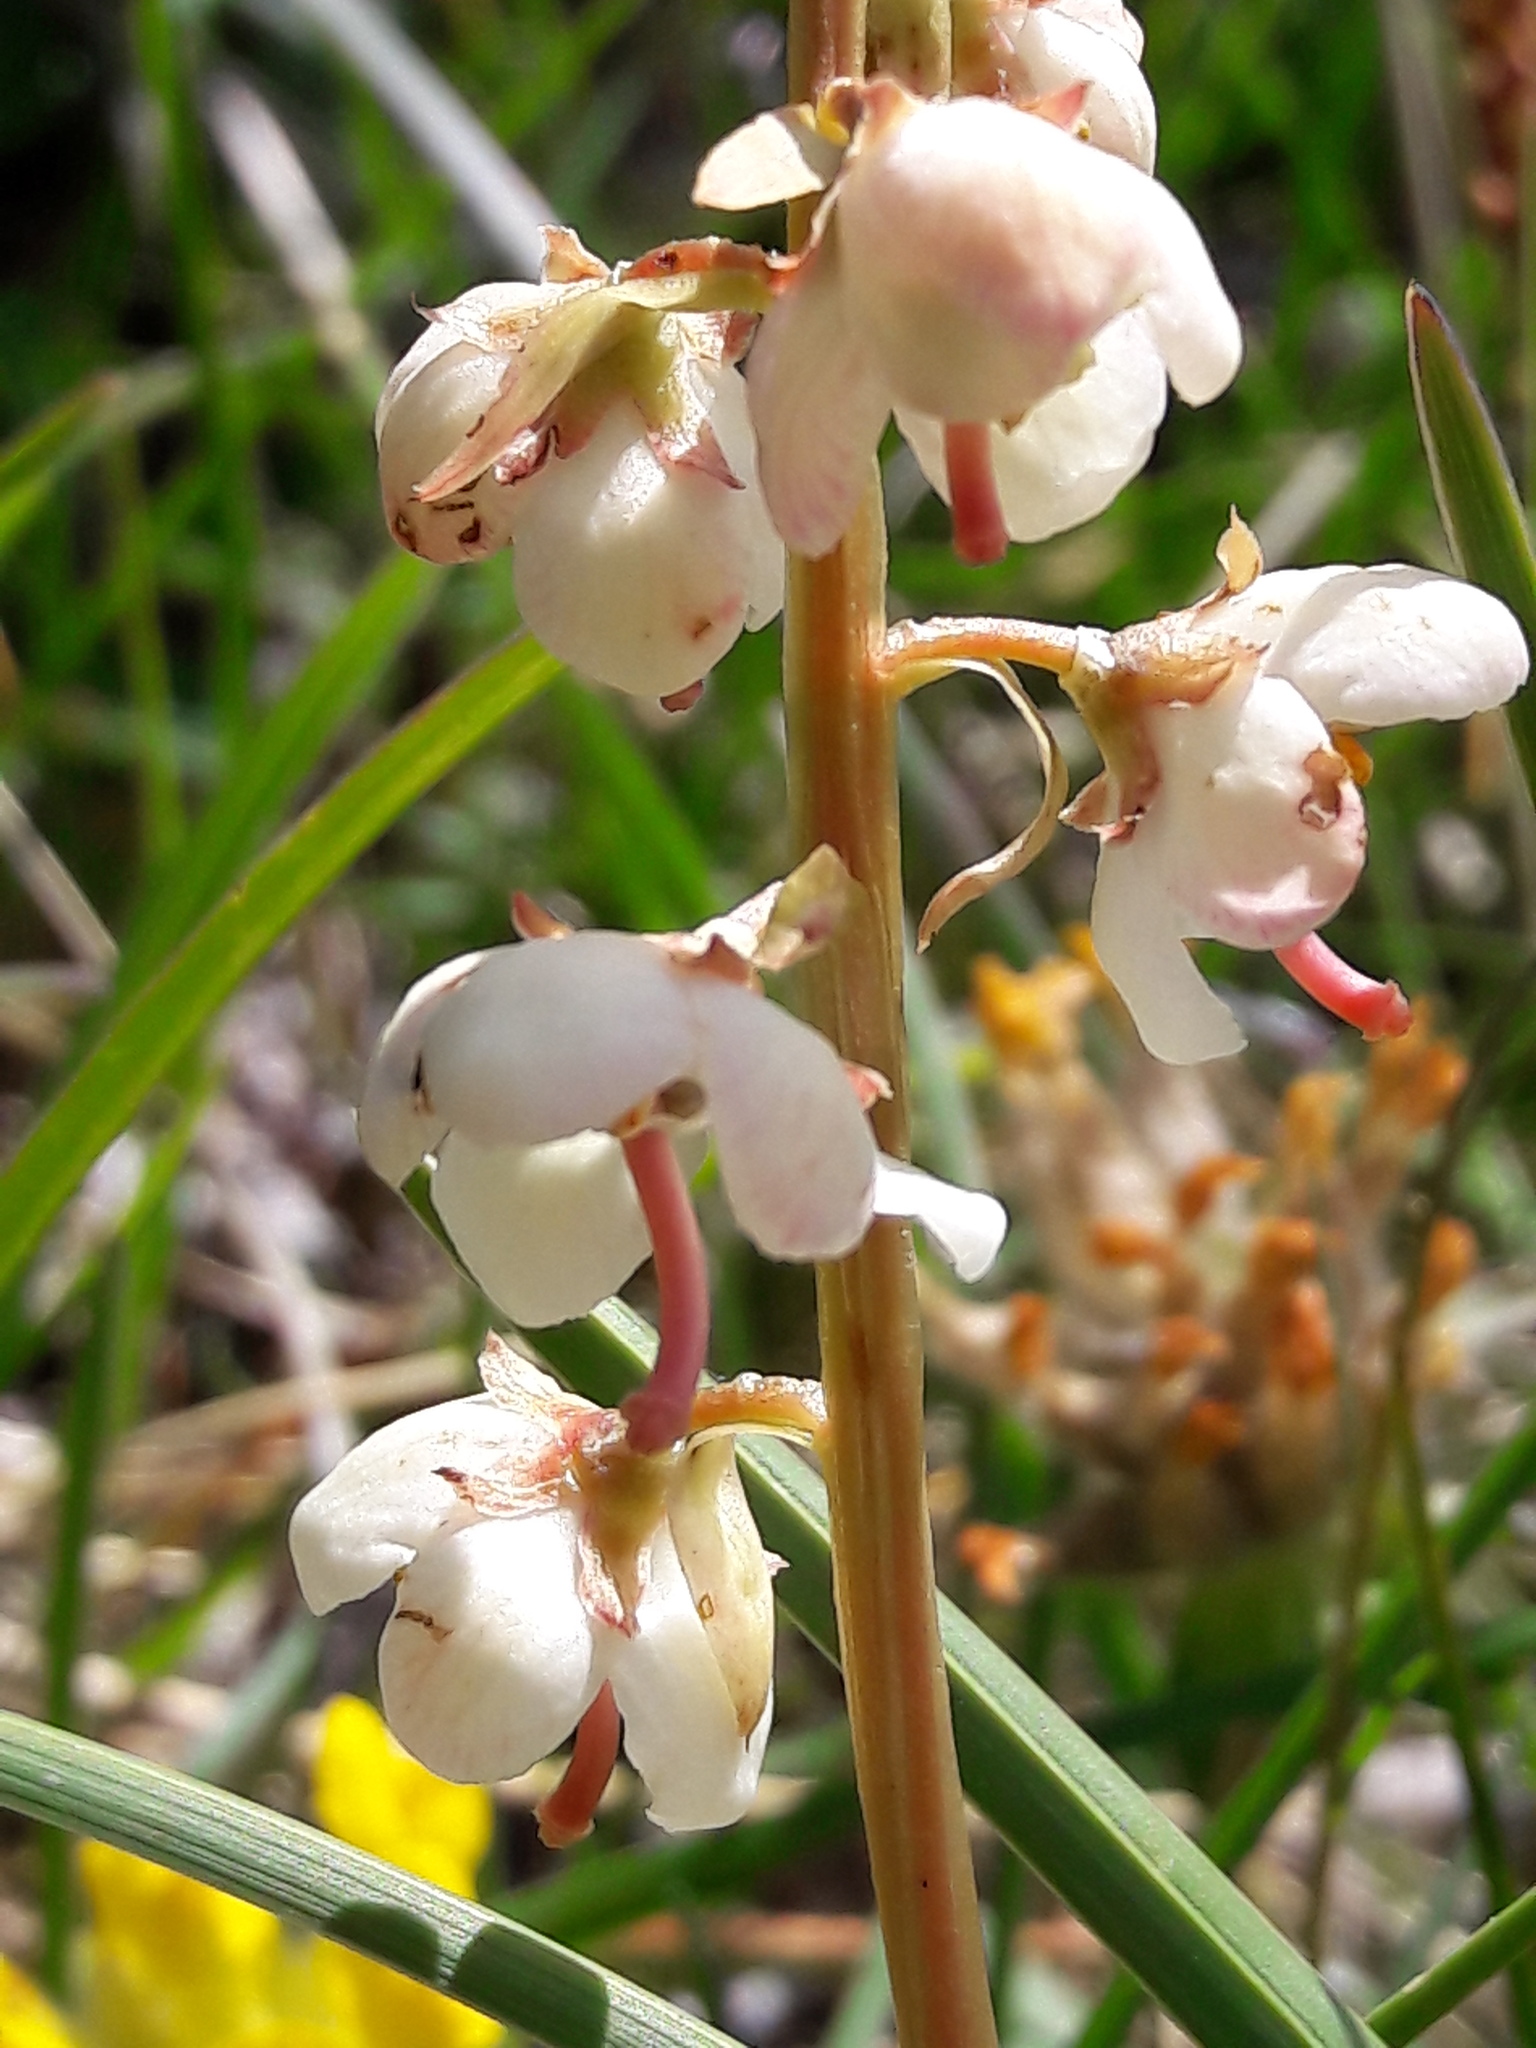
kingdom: Plantae
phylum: Tracheophyta
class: Magnoliopsida
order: Ericales
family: Ericaceae
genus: Pyrola
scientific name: Pyrola rotundifolia
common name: Round-leaved wintergreen
